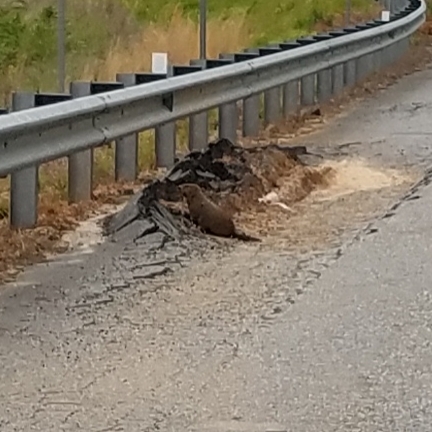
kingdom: Animalia
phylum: Chordata
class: Mammalia
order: Rodentia
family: Sciuridae
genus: Marmota
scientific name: Marmota monax
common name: Groundhog
